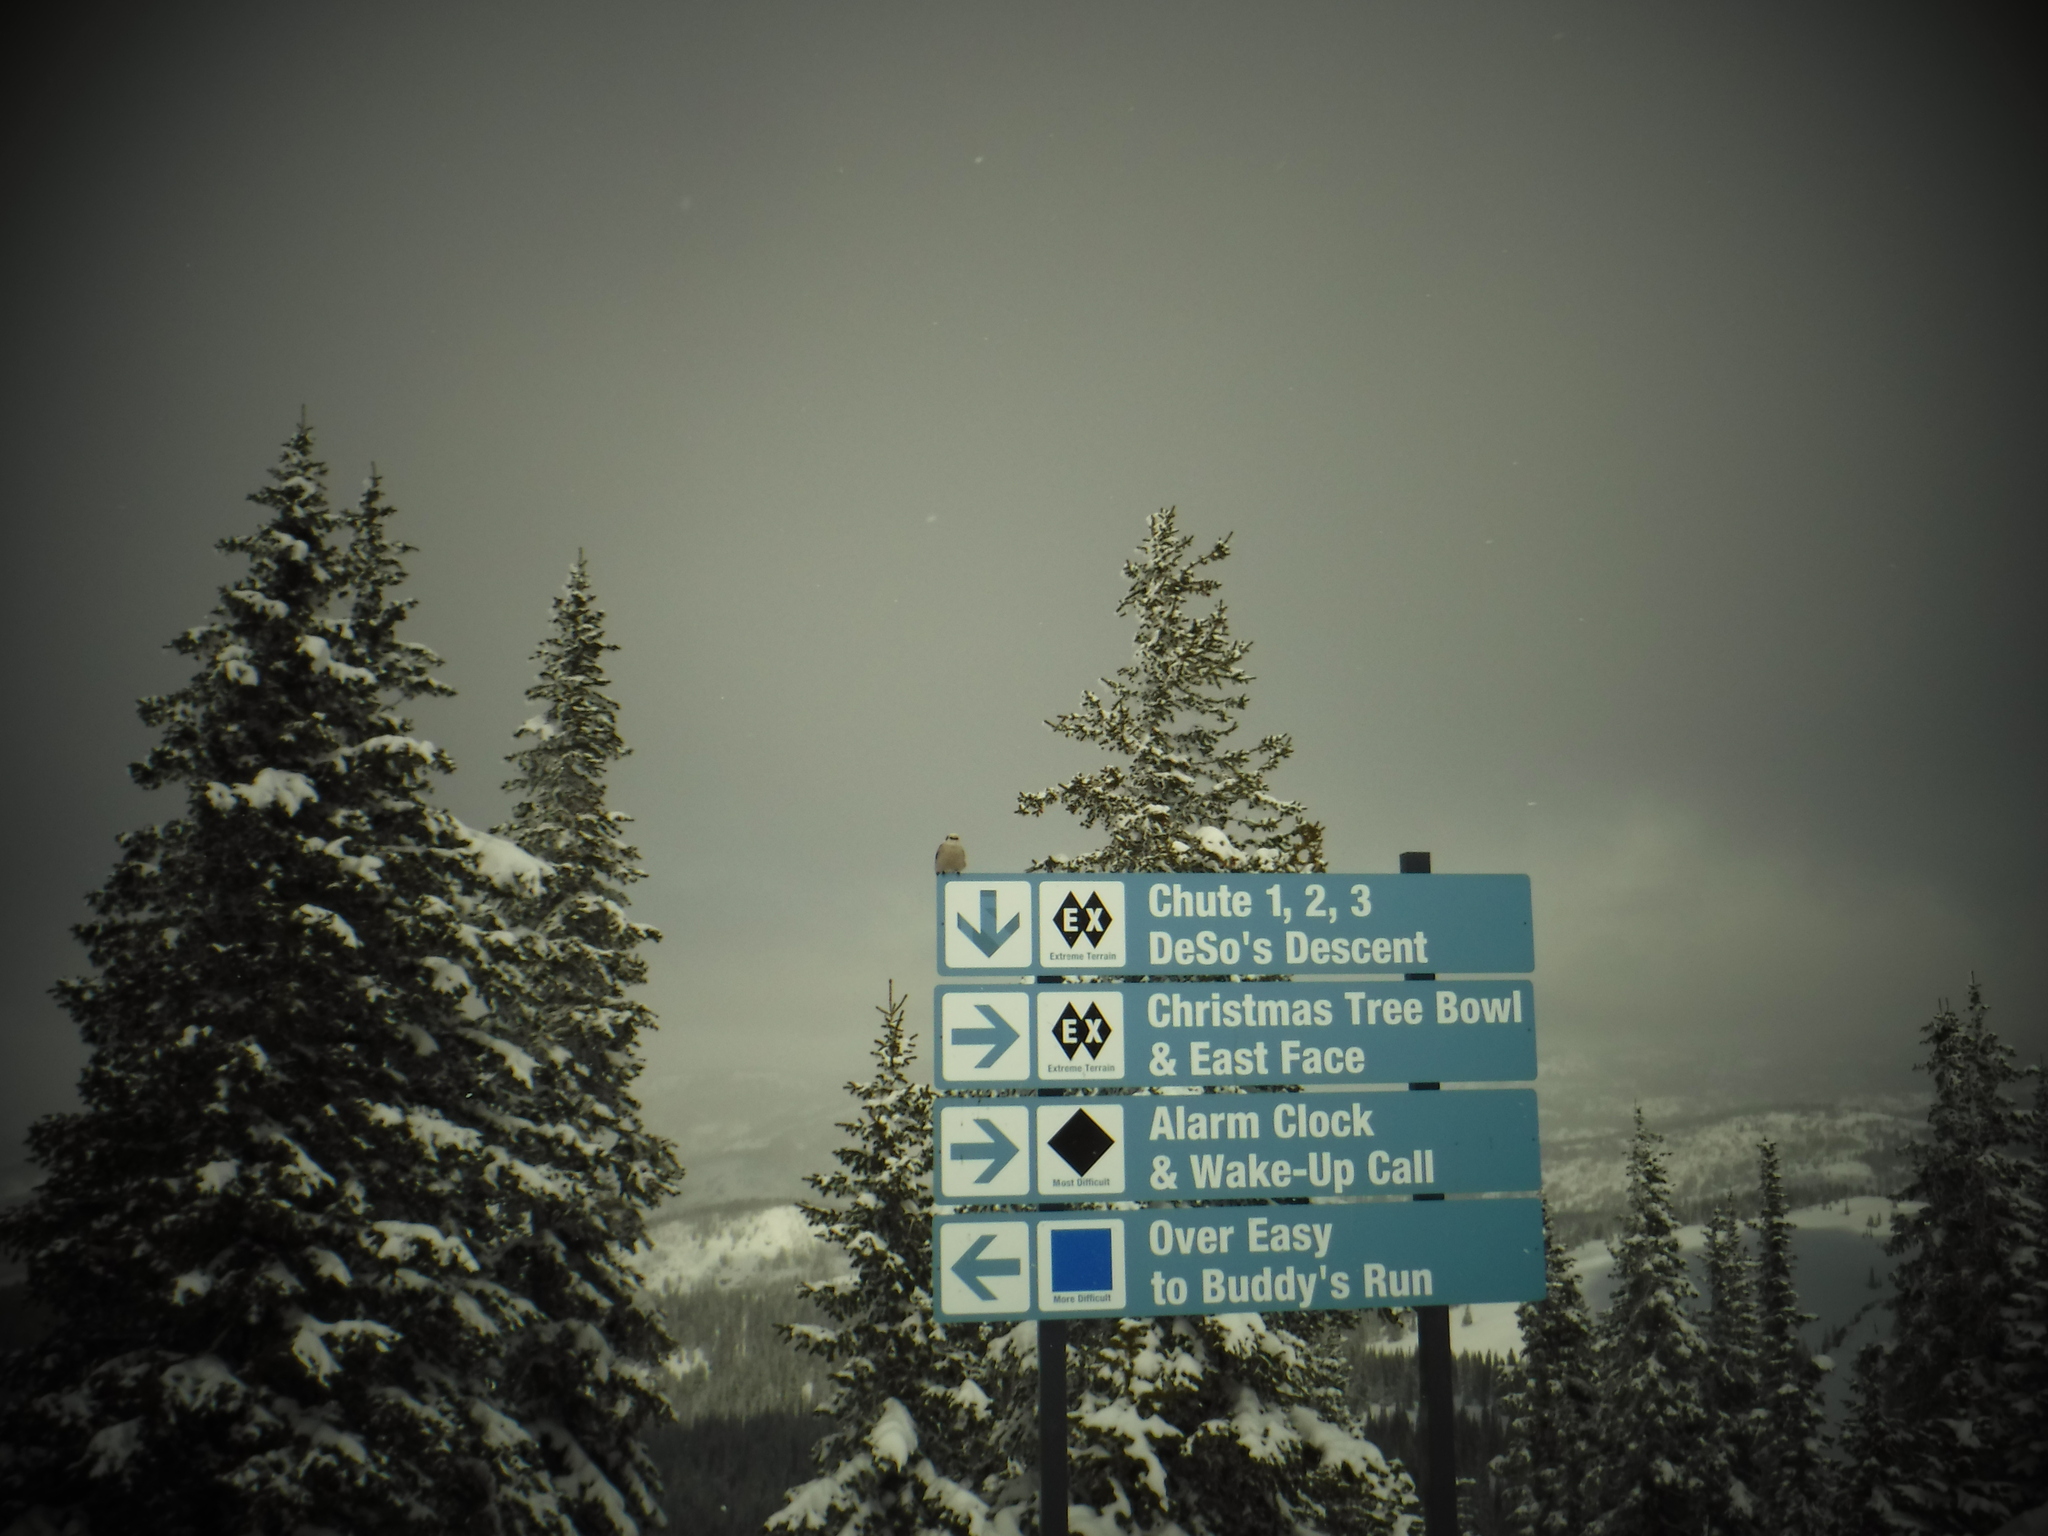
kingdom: Animalia
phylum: Chordata
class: Aves
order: Passeriformes
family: Corvidae
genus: Perisoreus
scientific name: Perisoreus canadensis
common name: Gray jay
